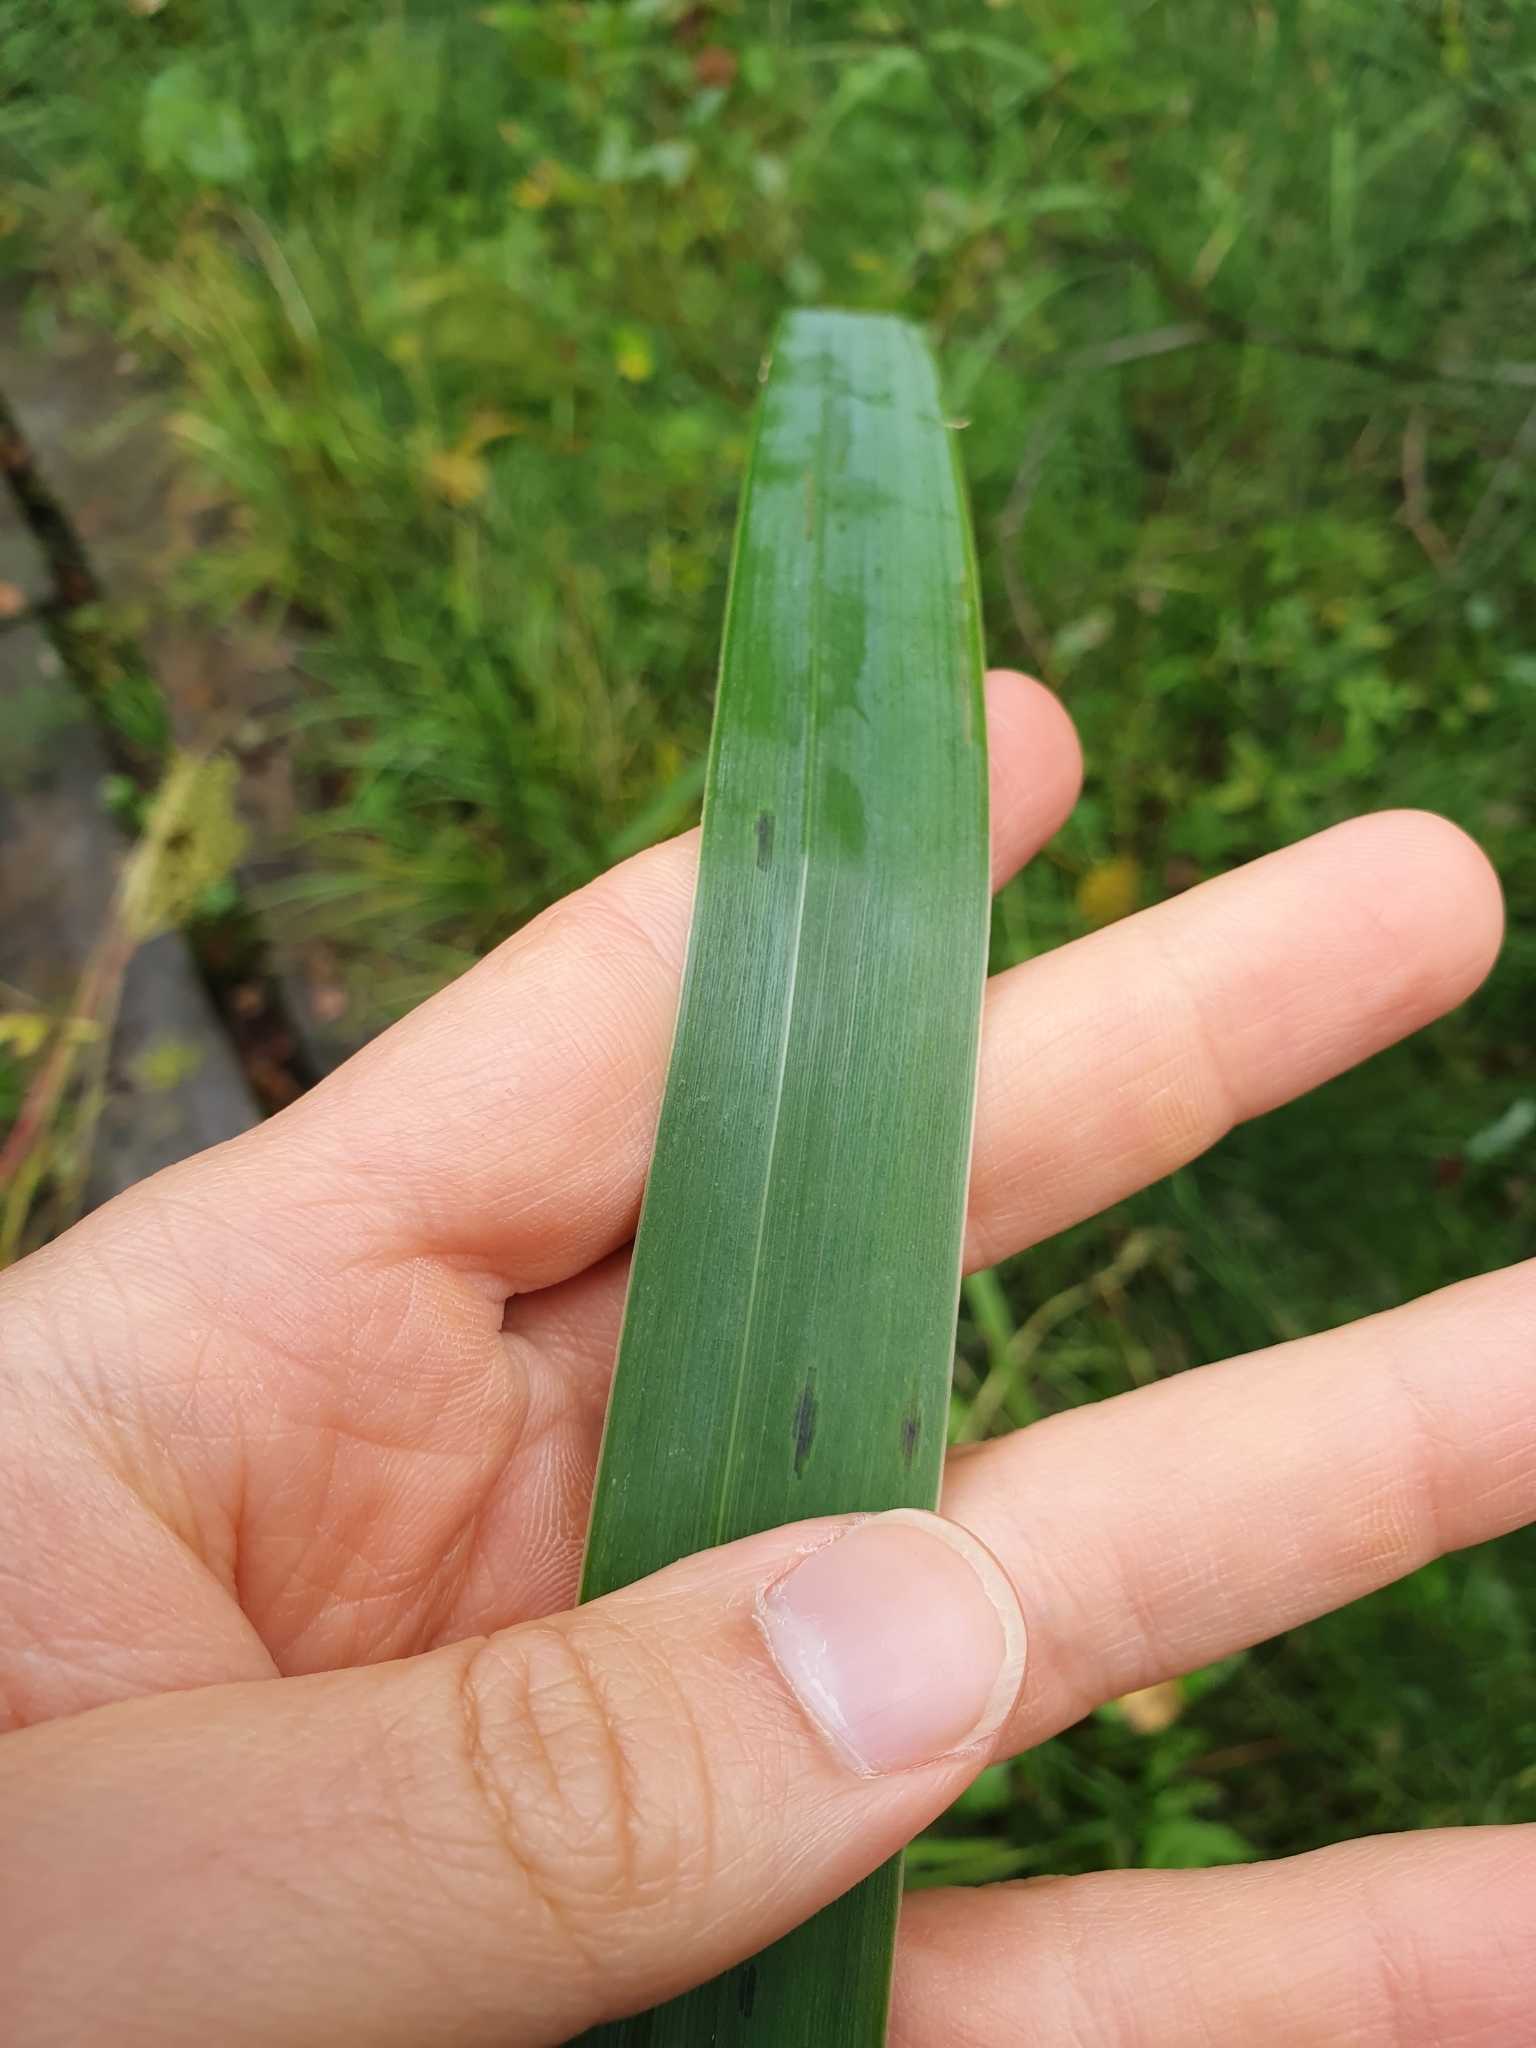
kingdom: Plantae
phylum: Tracheophyta
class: Liliopsida
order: Asparagales
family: Iridaceae
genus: Iris
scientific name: Iris pseudacorus
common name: Yellow flag
